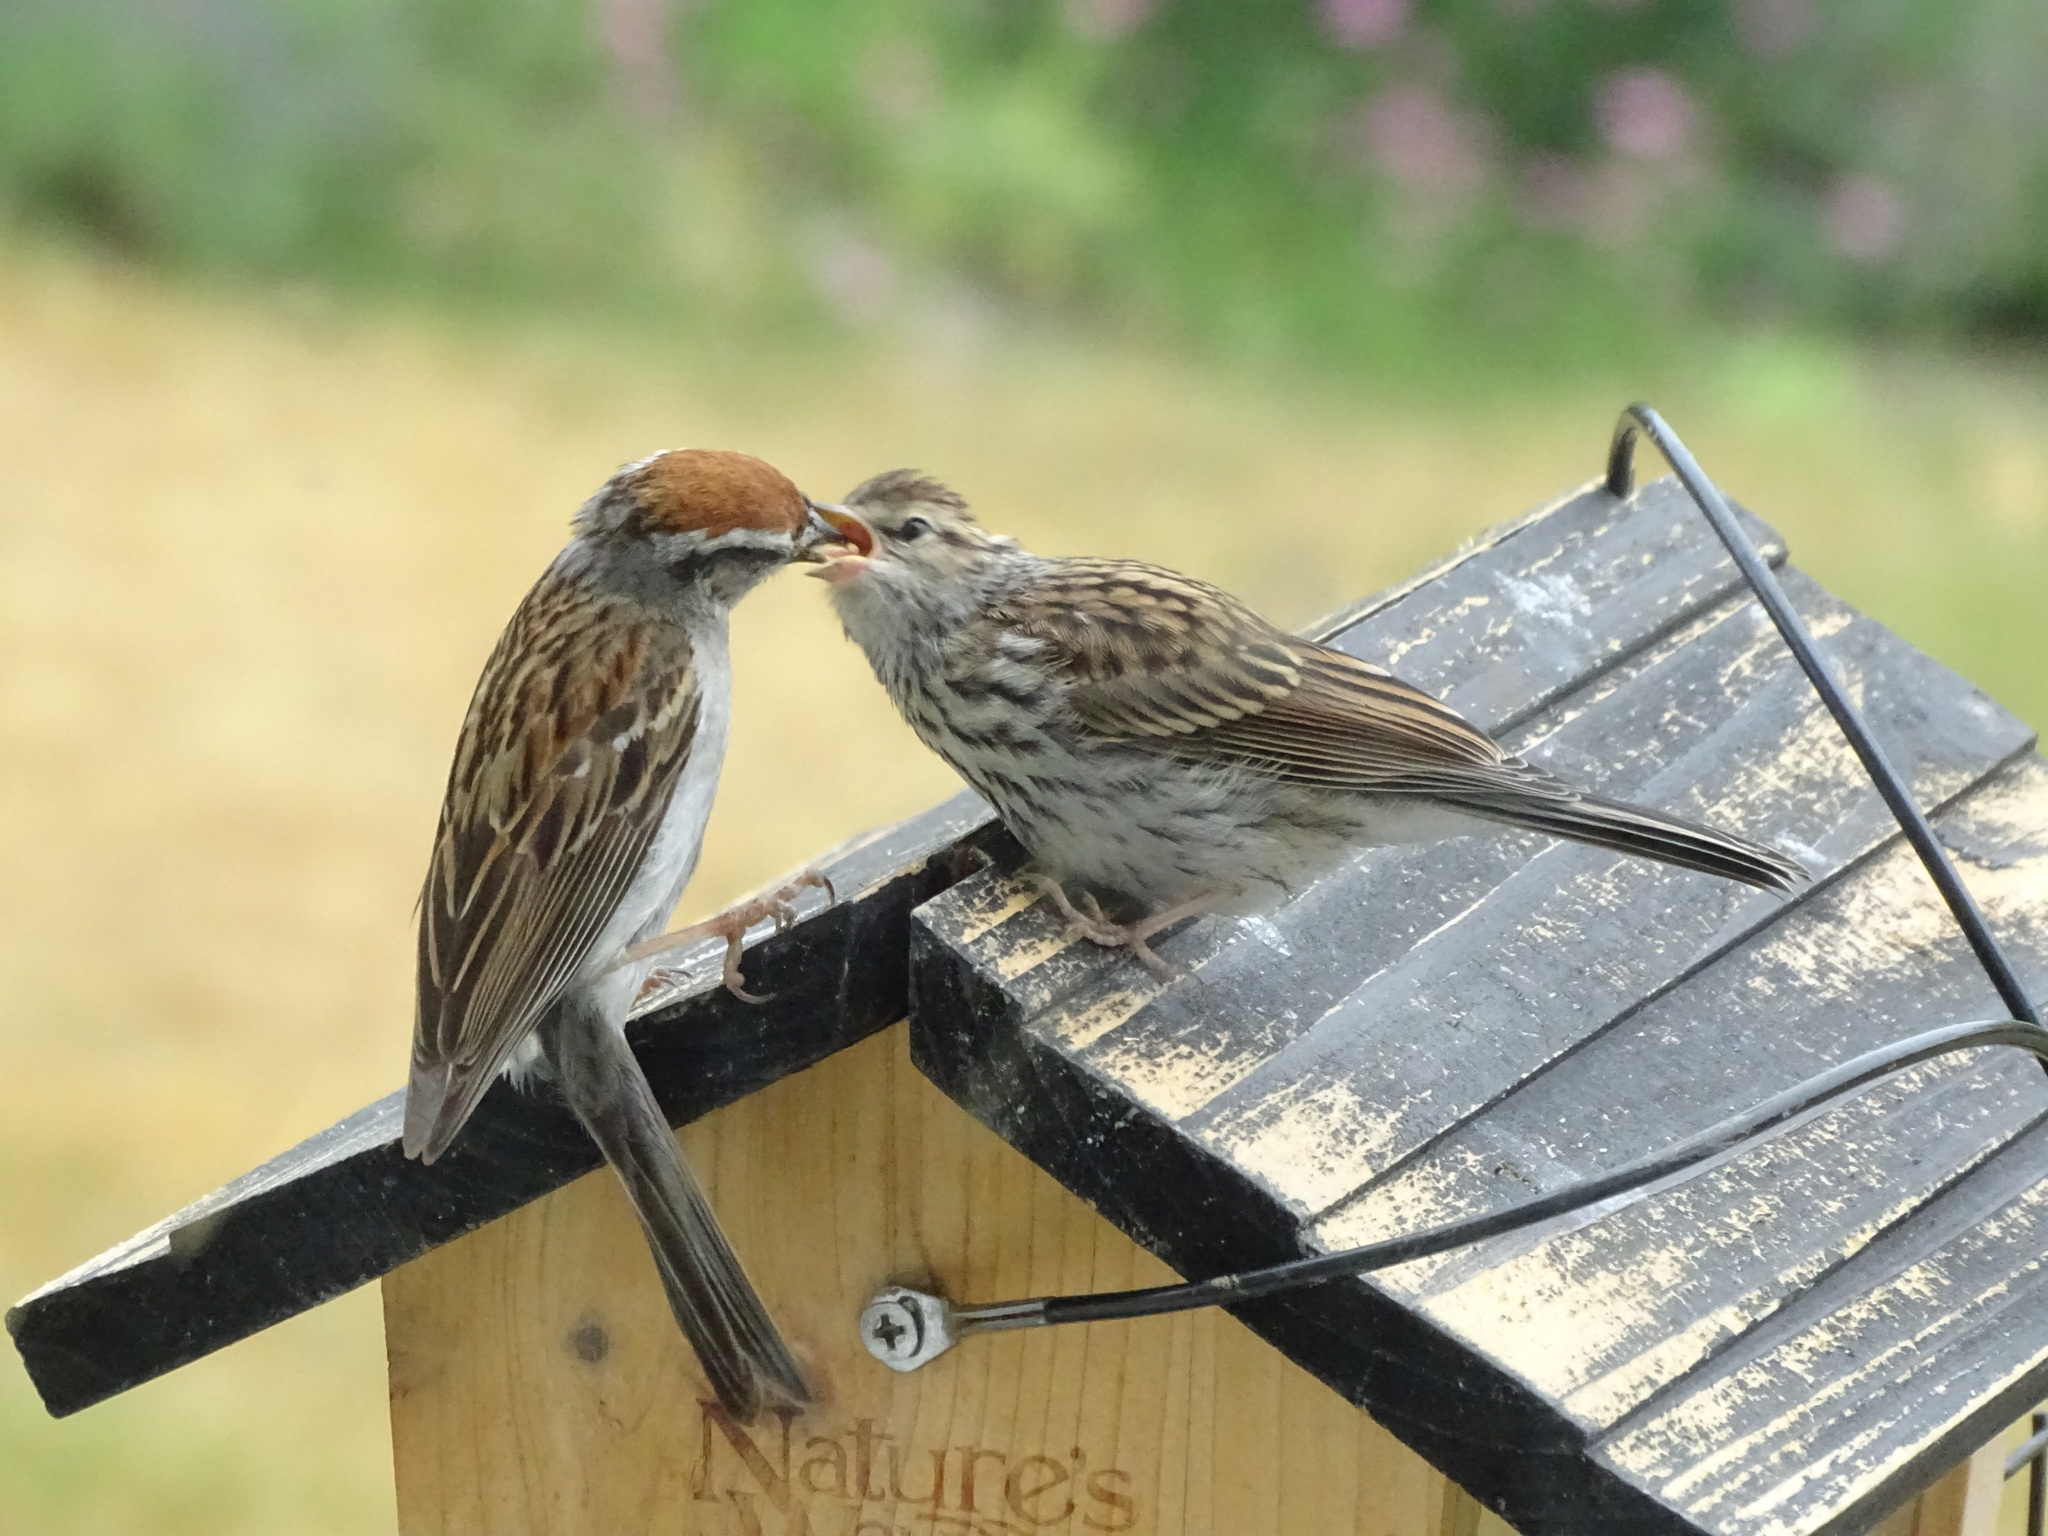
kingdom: Animalia
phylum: Chordata
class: Aves
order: Passeriformes
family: Passerellidae
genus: Spizella
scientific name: Spizella passerina
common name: Chipping sparrow
